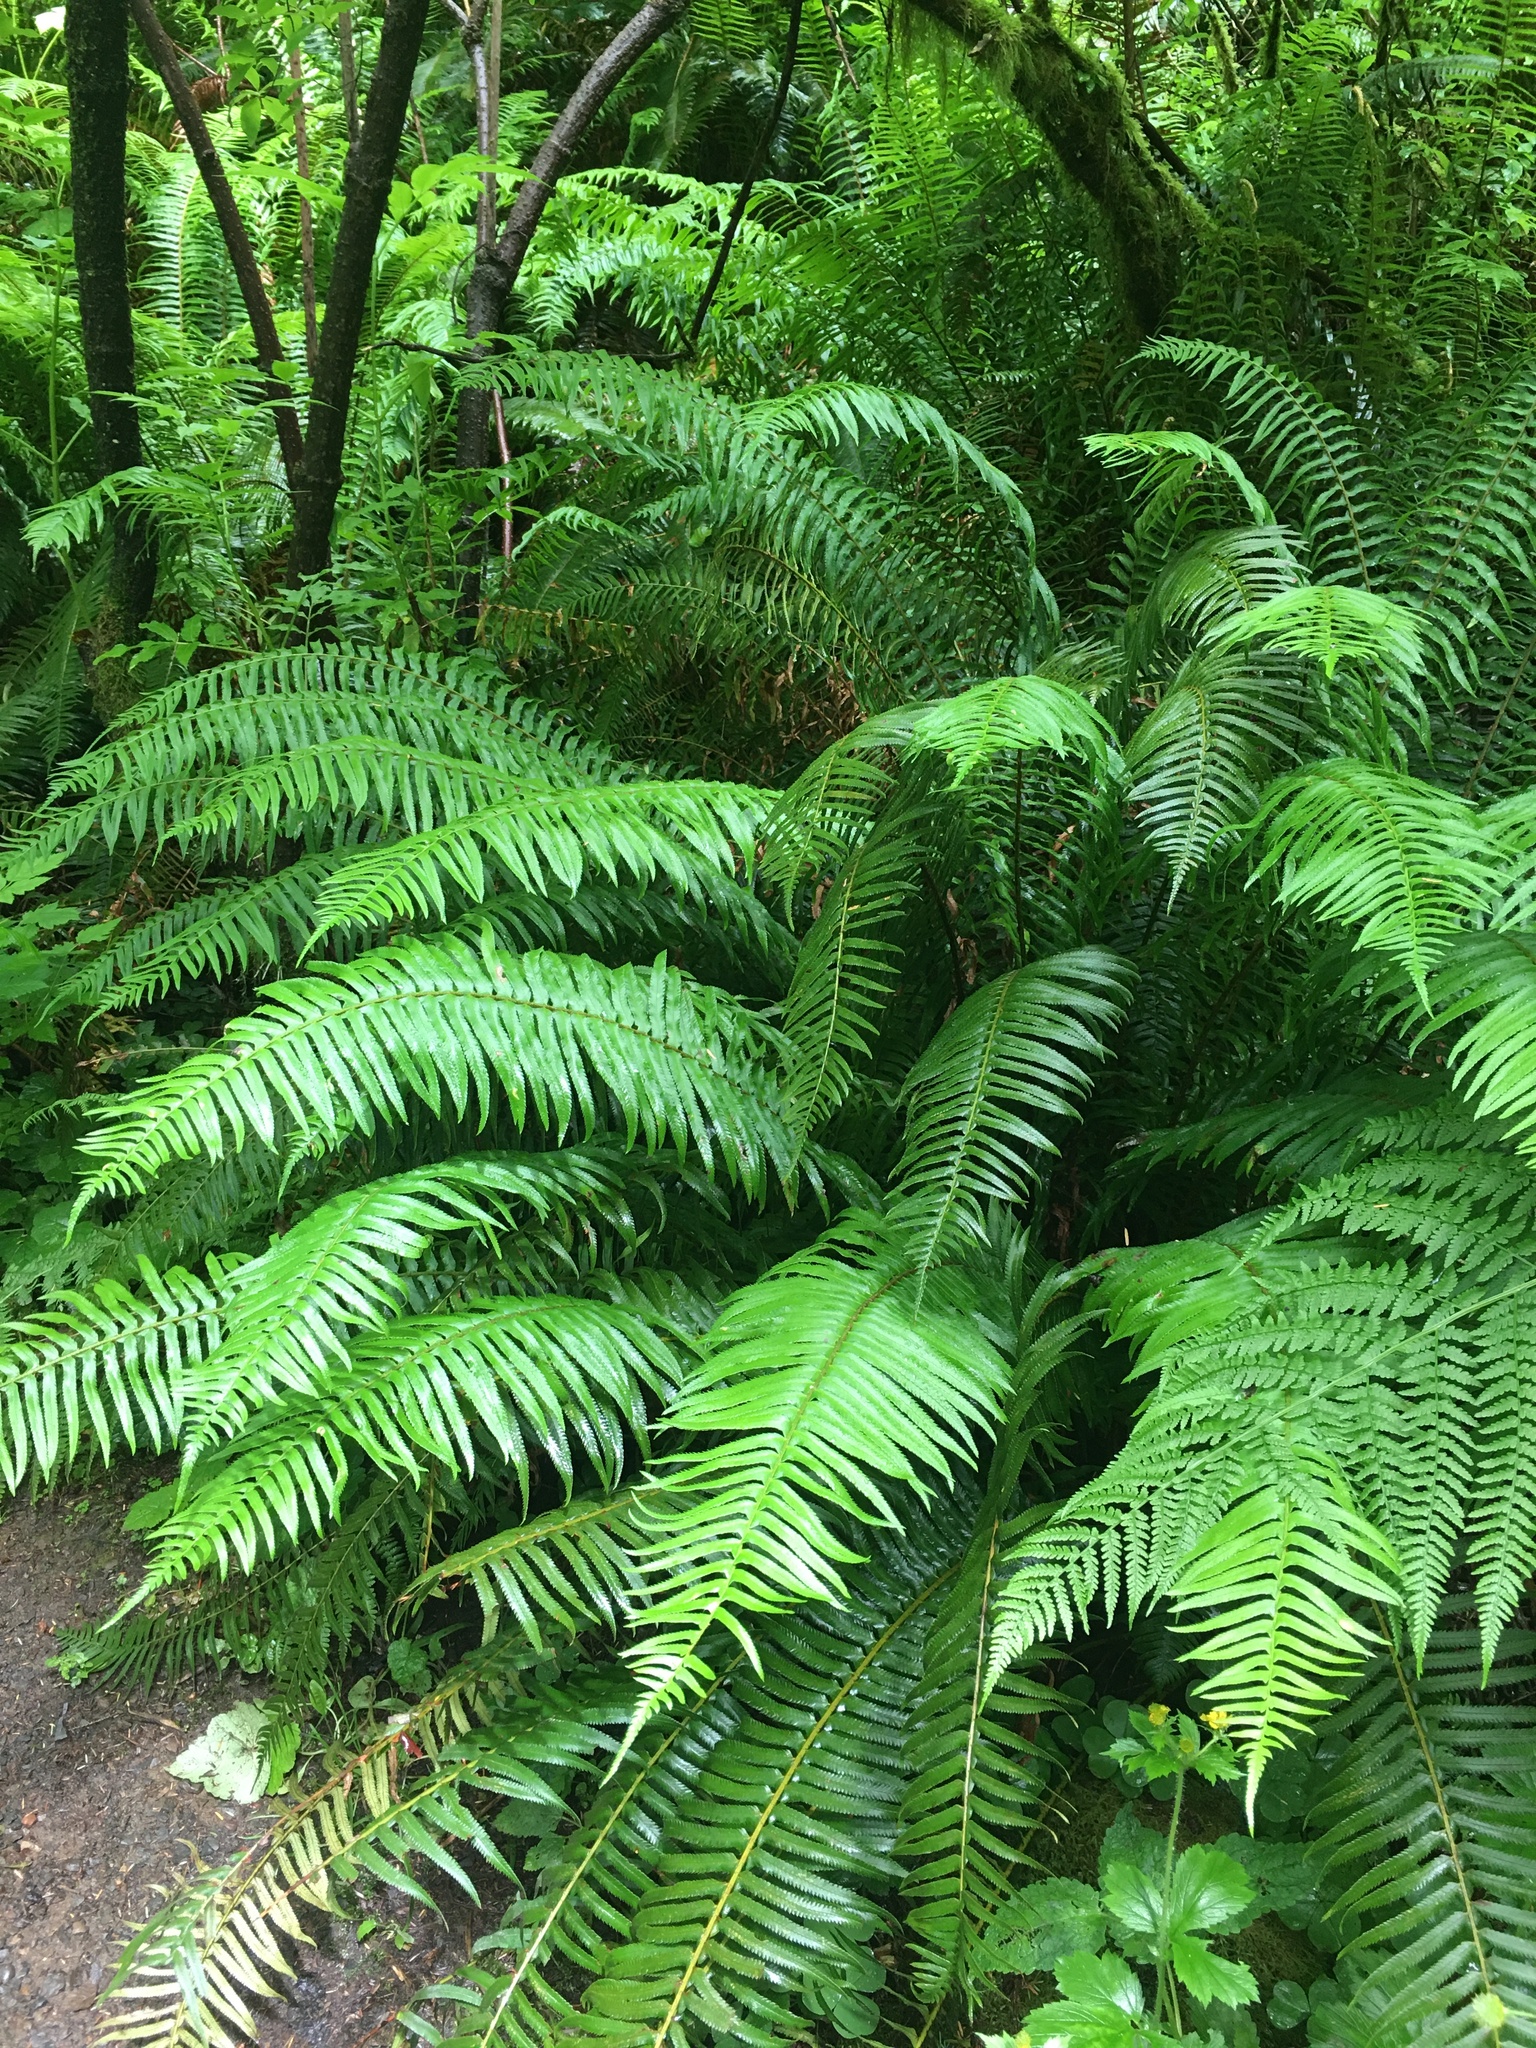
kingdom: Plantae
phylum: Tracheophyta
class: Polypodiopsida
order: Polypodiales
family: Dryopteridaceae
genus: Polystichum
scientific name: Polystichum munitum
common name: Western sword-fern
